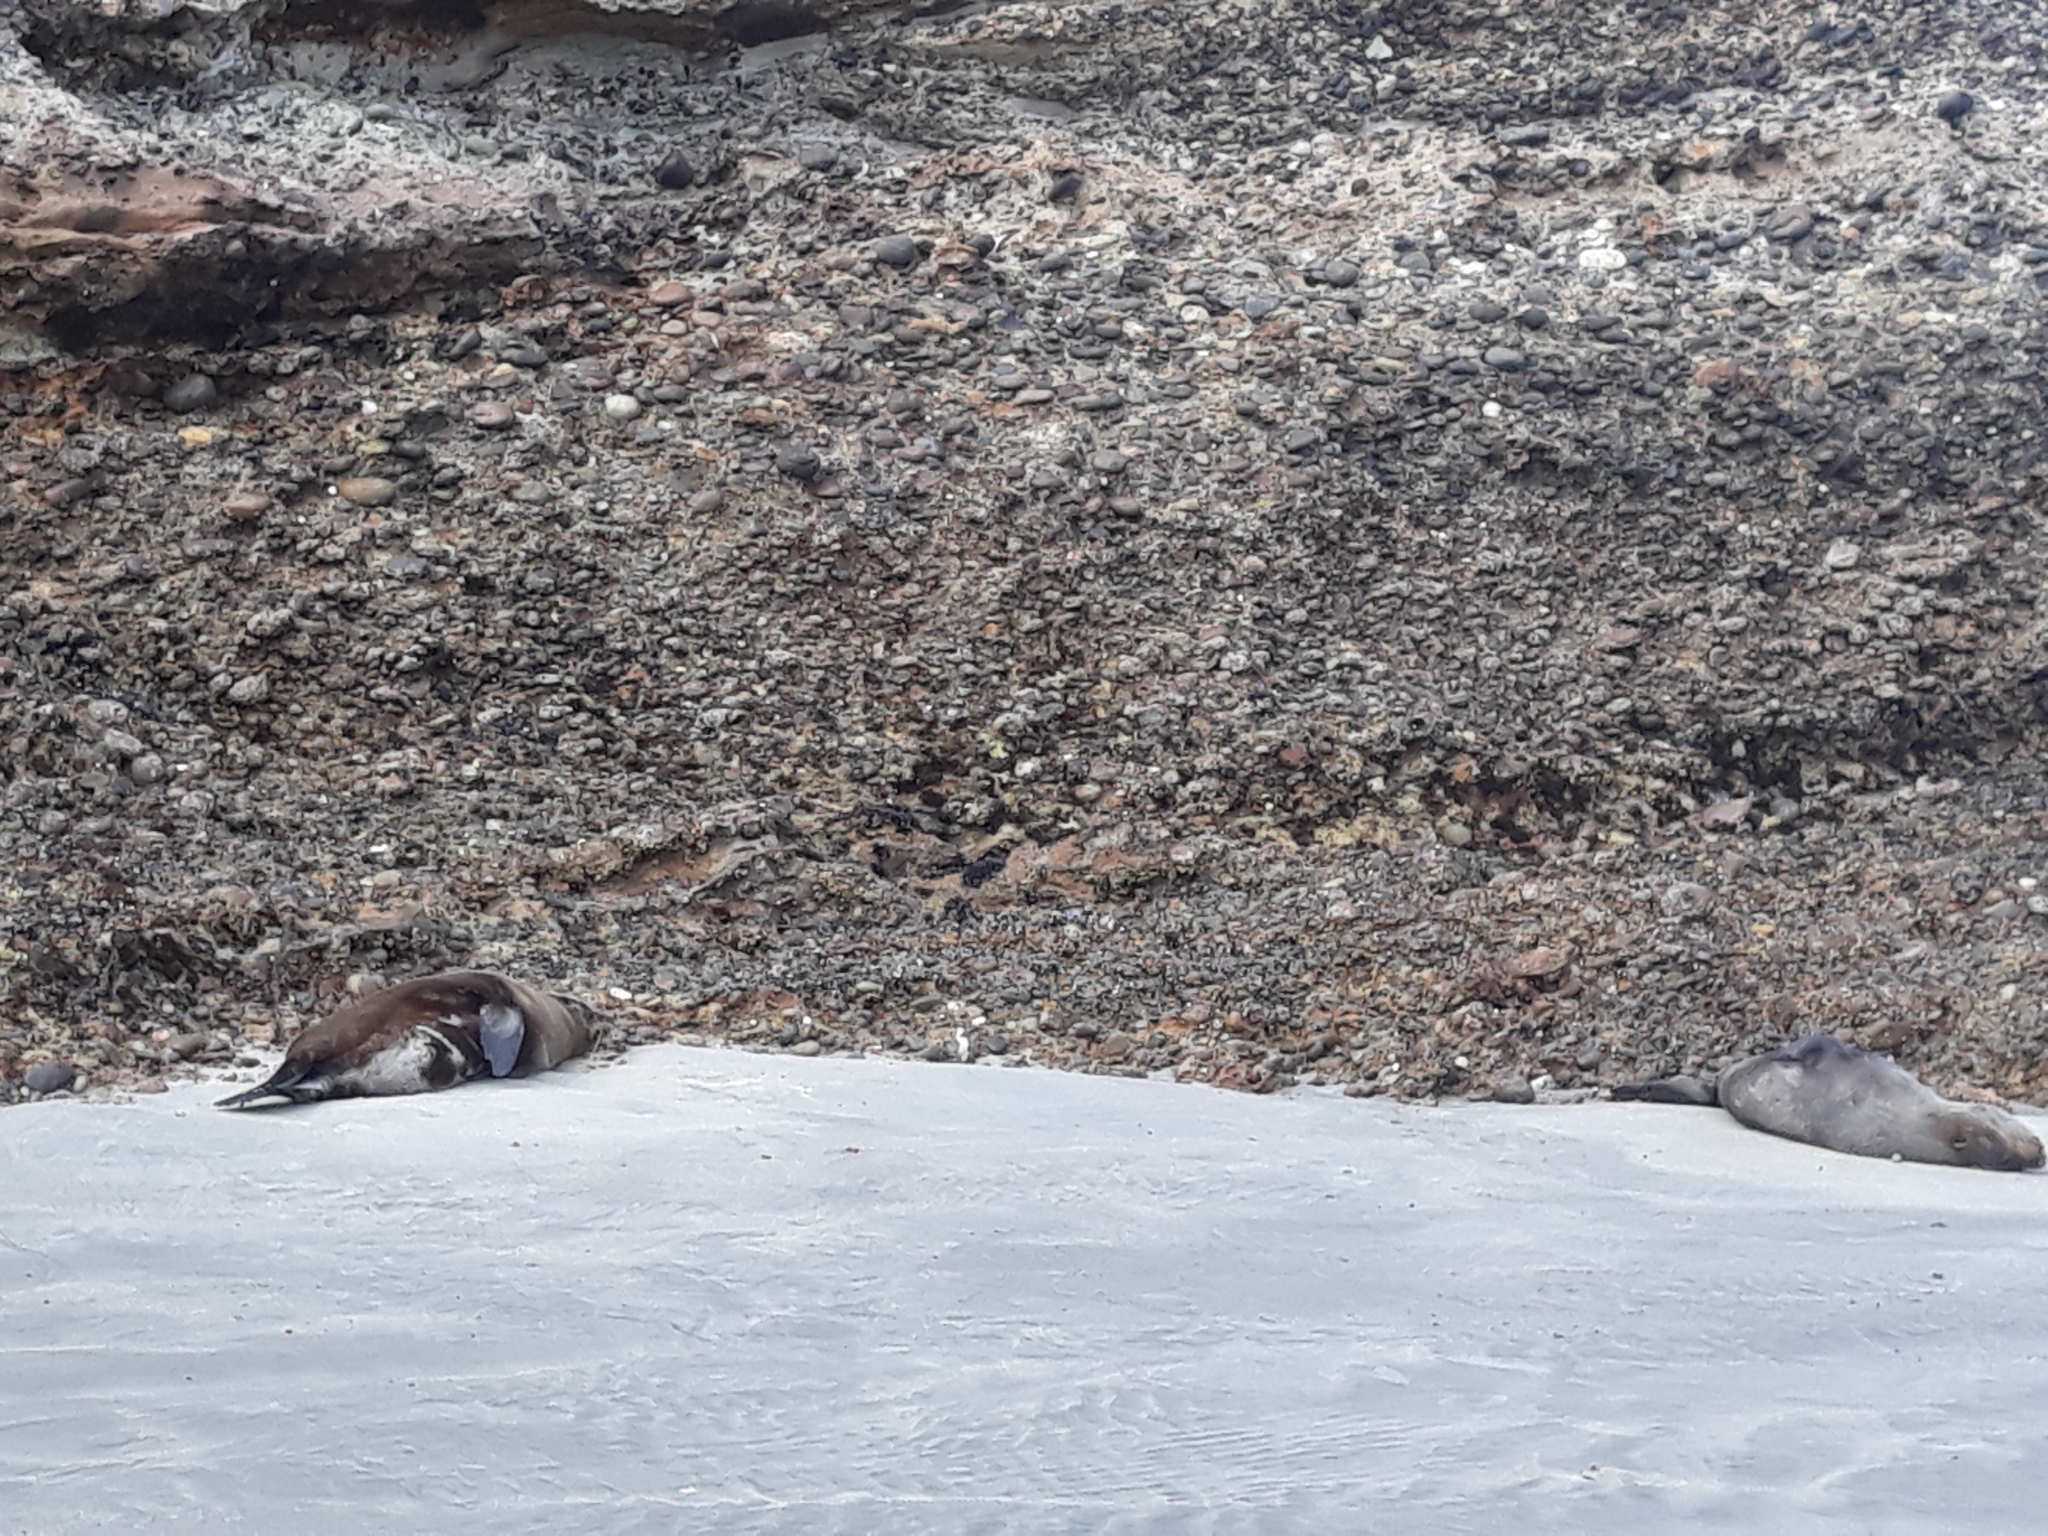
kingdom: Animalia
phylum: Chordata
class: Mammalia
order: Carnivora
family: Otariidae
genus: Arctocephalus
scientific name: Arctocephalus forsteri
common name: New zealand fur seal
